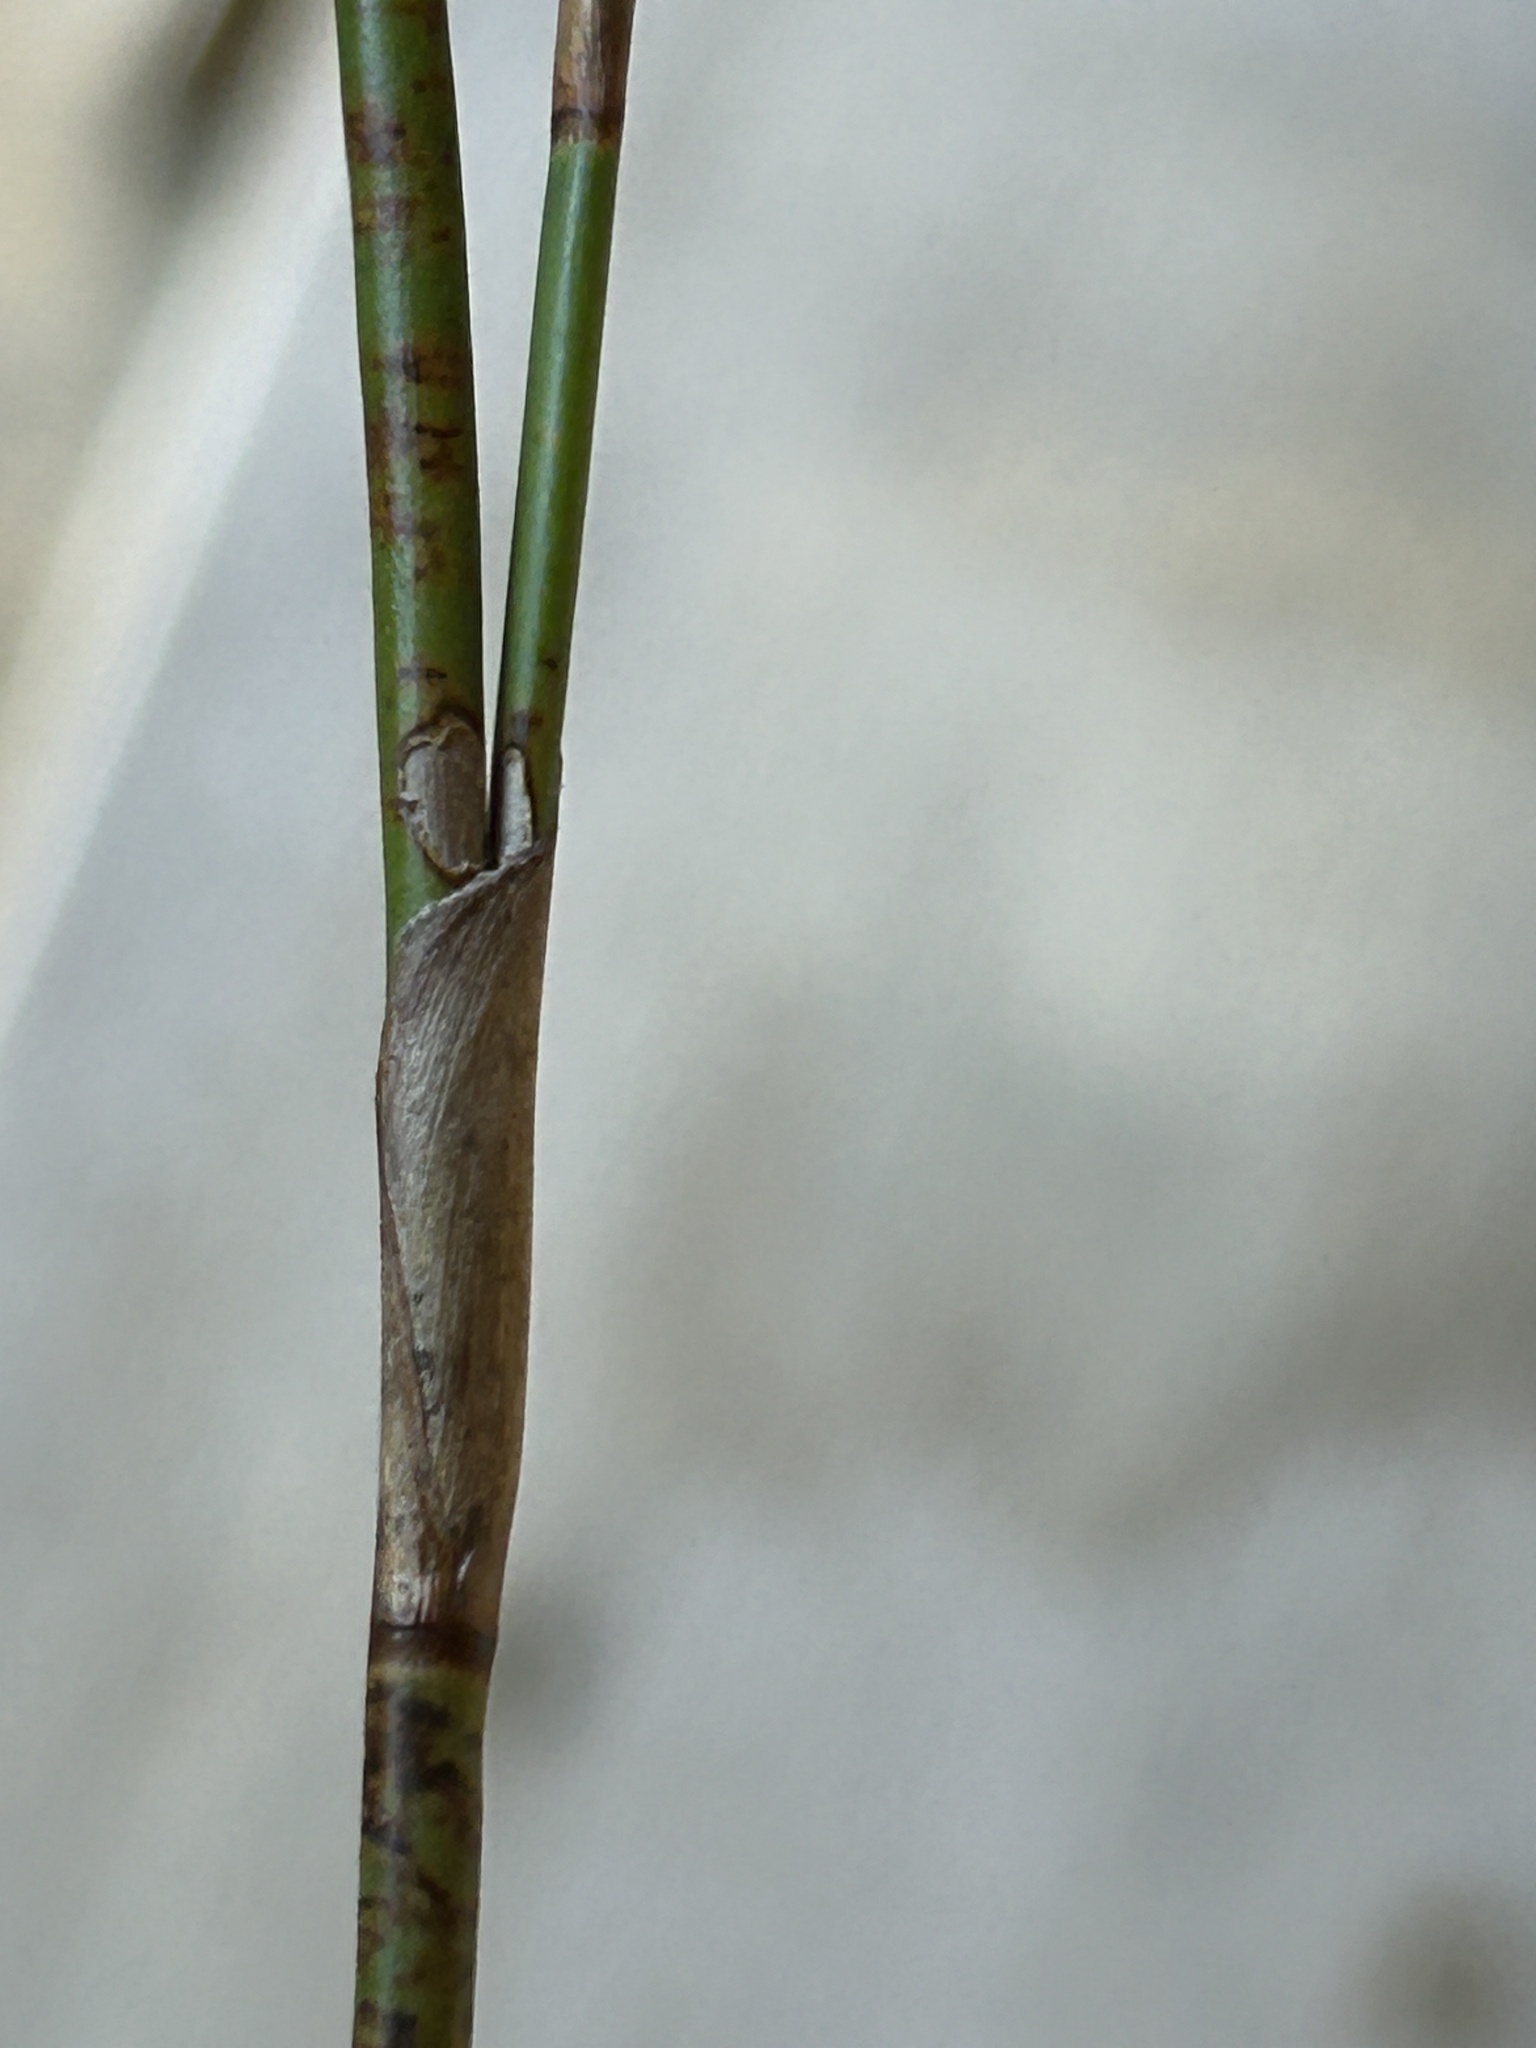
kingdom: Plantae
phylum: Tracheophyta
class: Liliopsida
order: Poales
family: Restionaceae
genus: Restio
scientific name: Restio eleocharis
